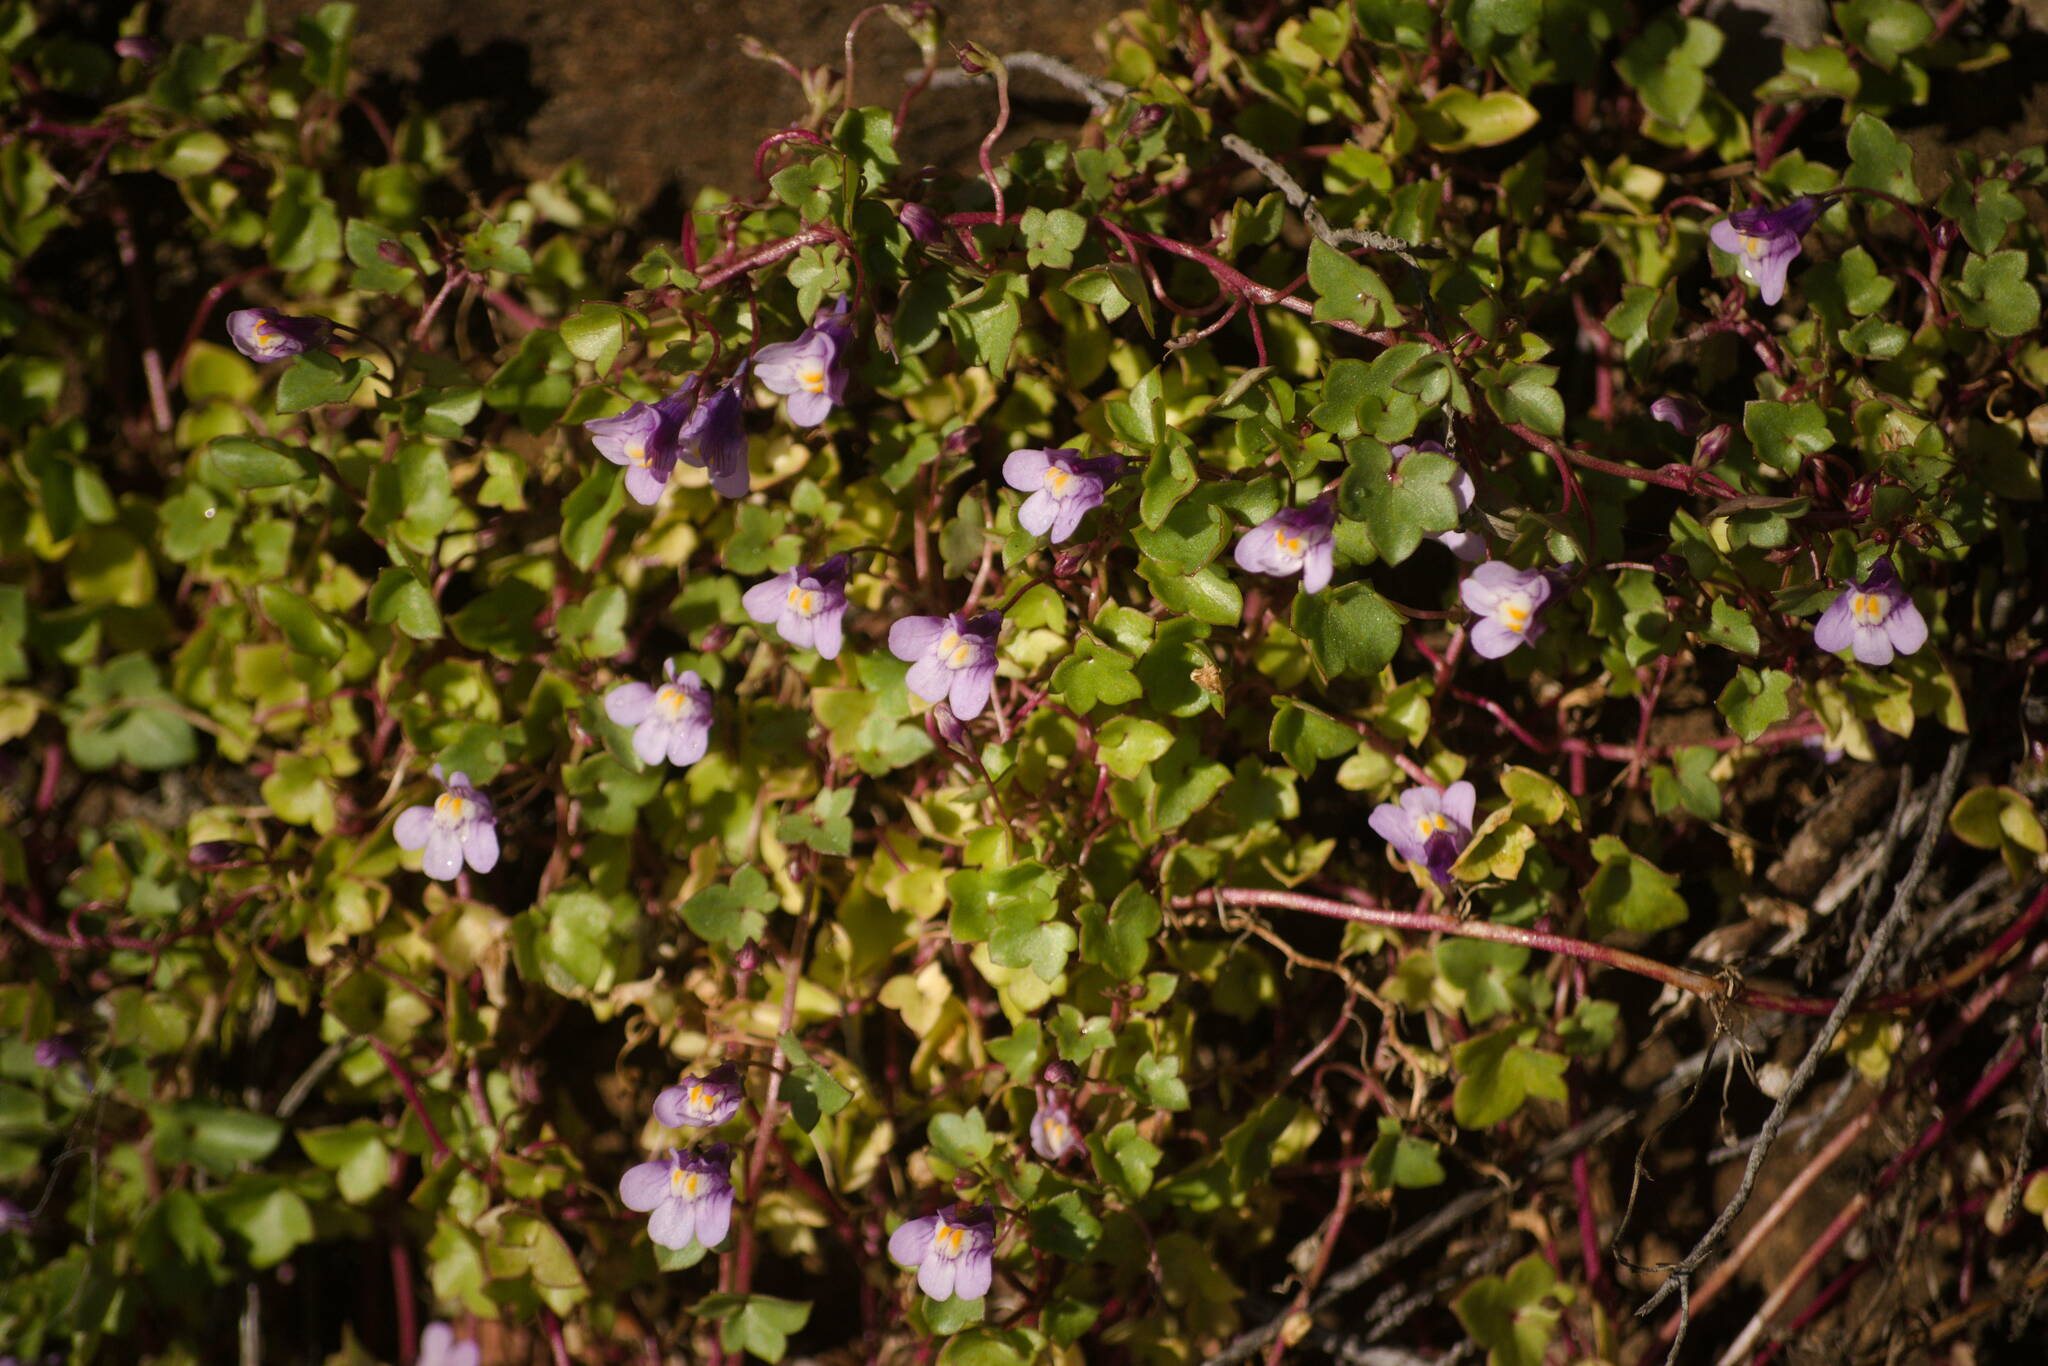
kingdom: Plantae
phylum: Tracheophyta
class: Magnoliopsida
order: Lamiales
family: Plantaginaceae
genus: Cymbalaria
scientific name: Cymbalaria muralis
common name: Ivy-leaved toadflax
